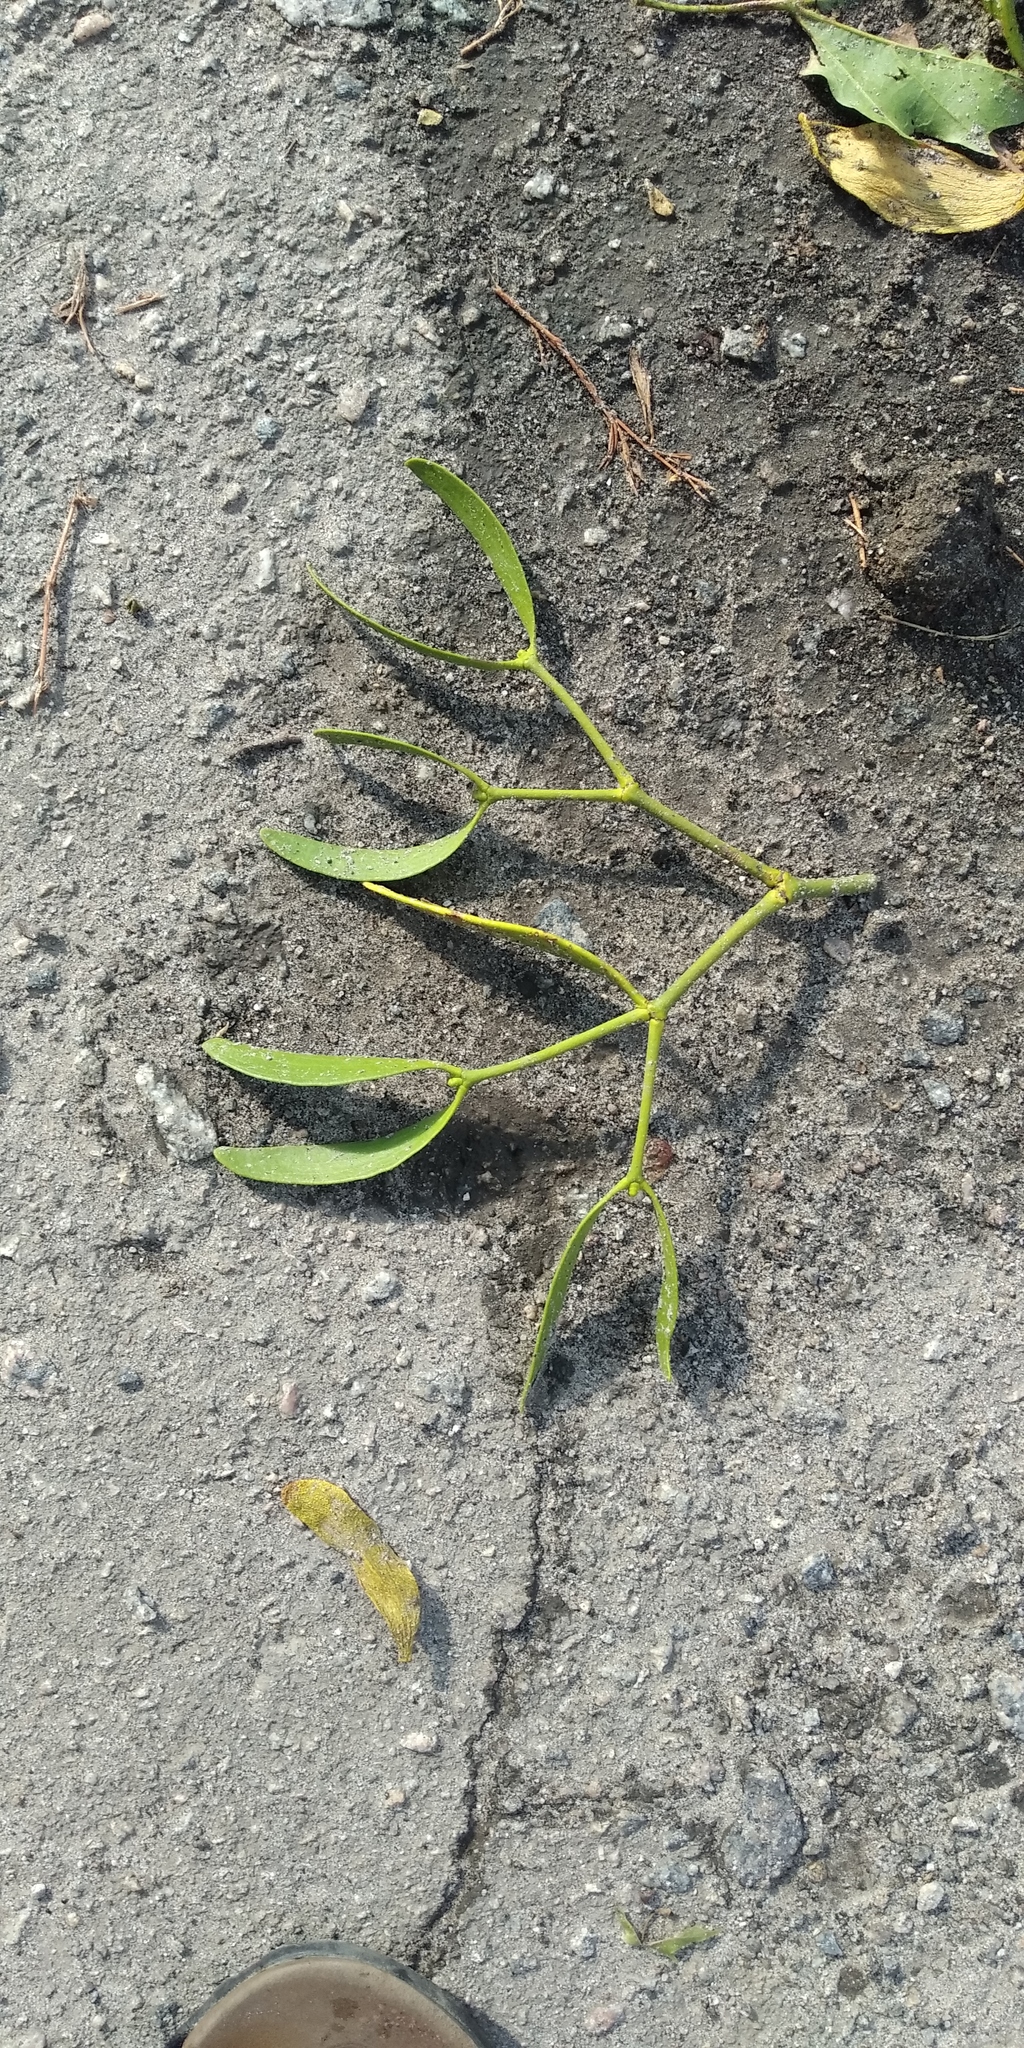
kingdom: Plantae
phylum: Tracheophyta
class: Magnoliopsida
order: Vitales
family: Vitaceae
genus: Parthenocissus
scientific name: Parthenocissus inserta
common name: False virginia-creeper
